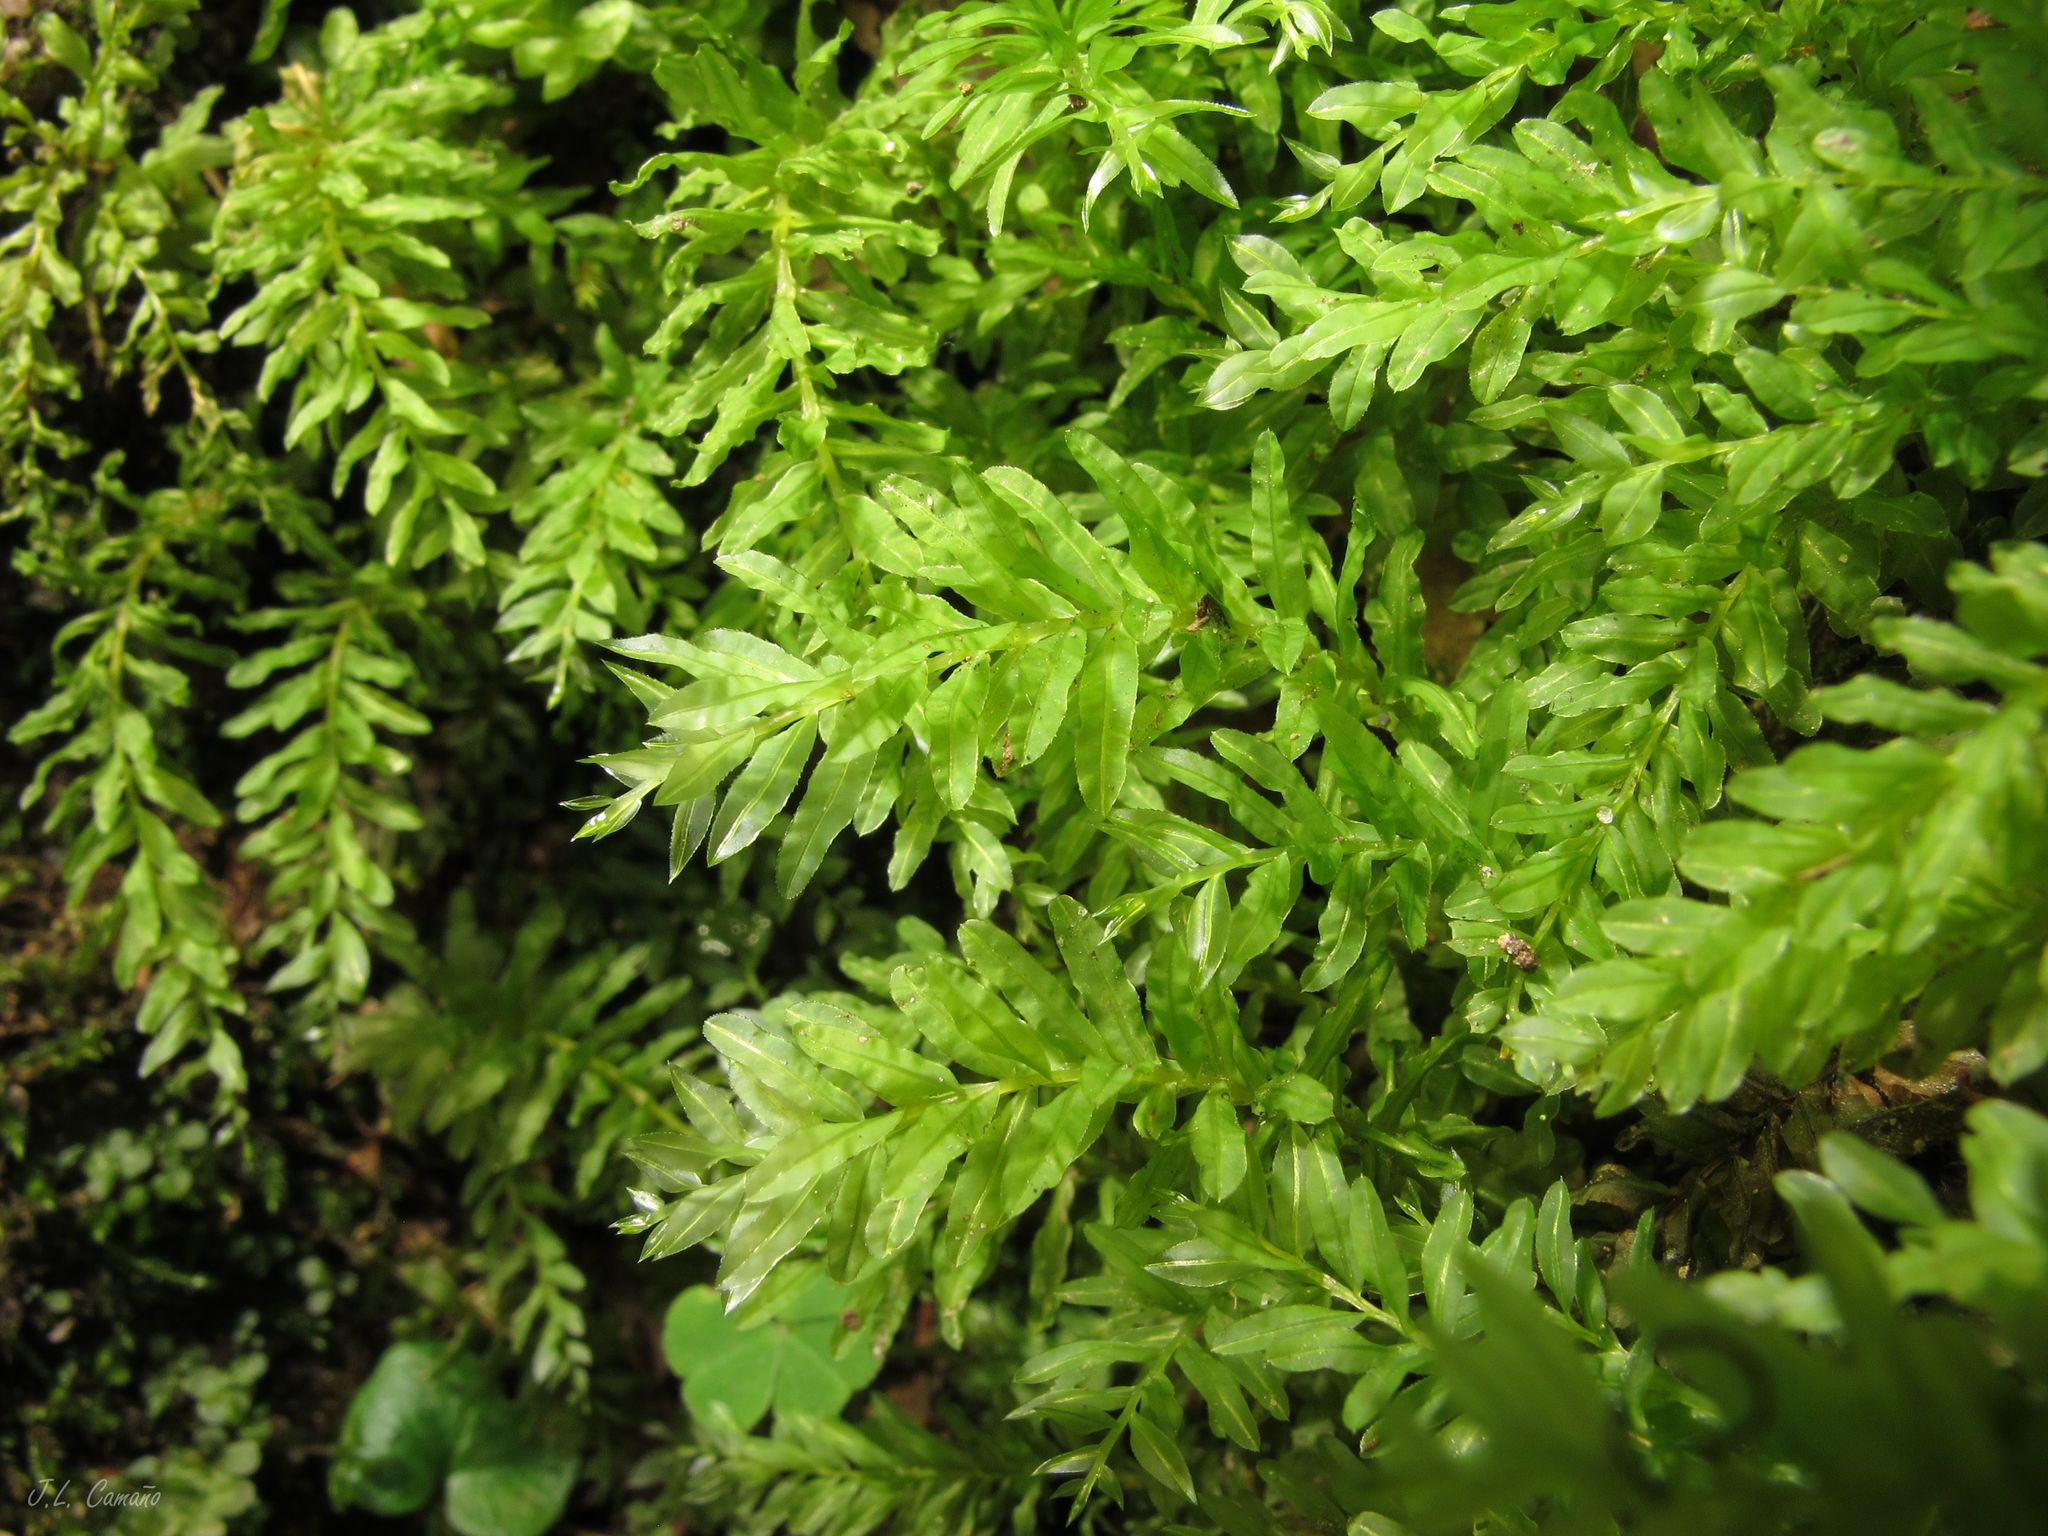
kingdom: Plantae
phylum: Bryophyta
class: Bryopsida
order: Bryales
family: Mniaceae
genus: Plagiomnium
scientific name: Plagiomnium undulatum
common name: Hart's-tongue thyme-moss
